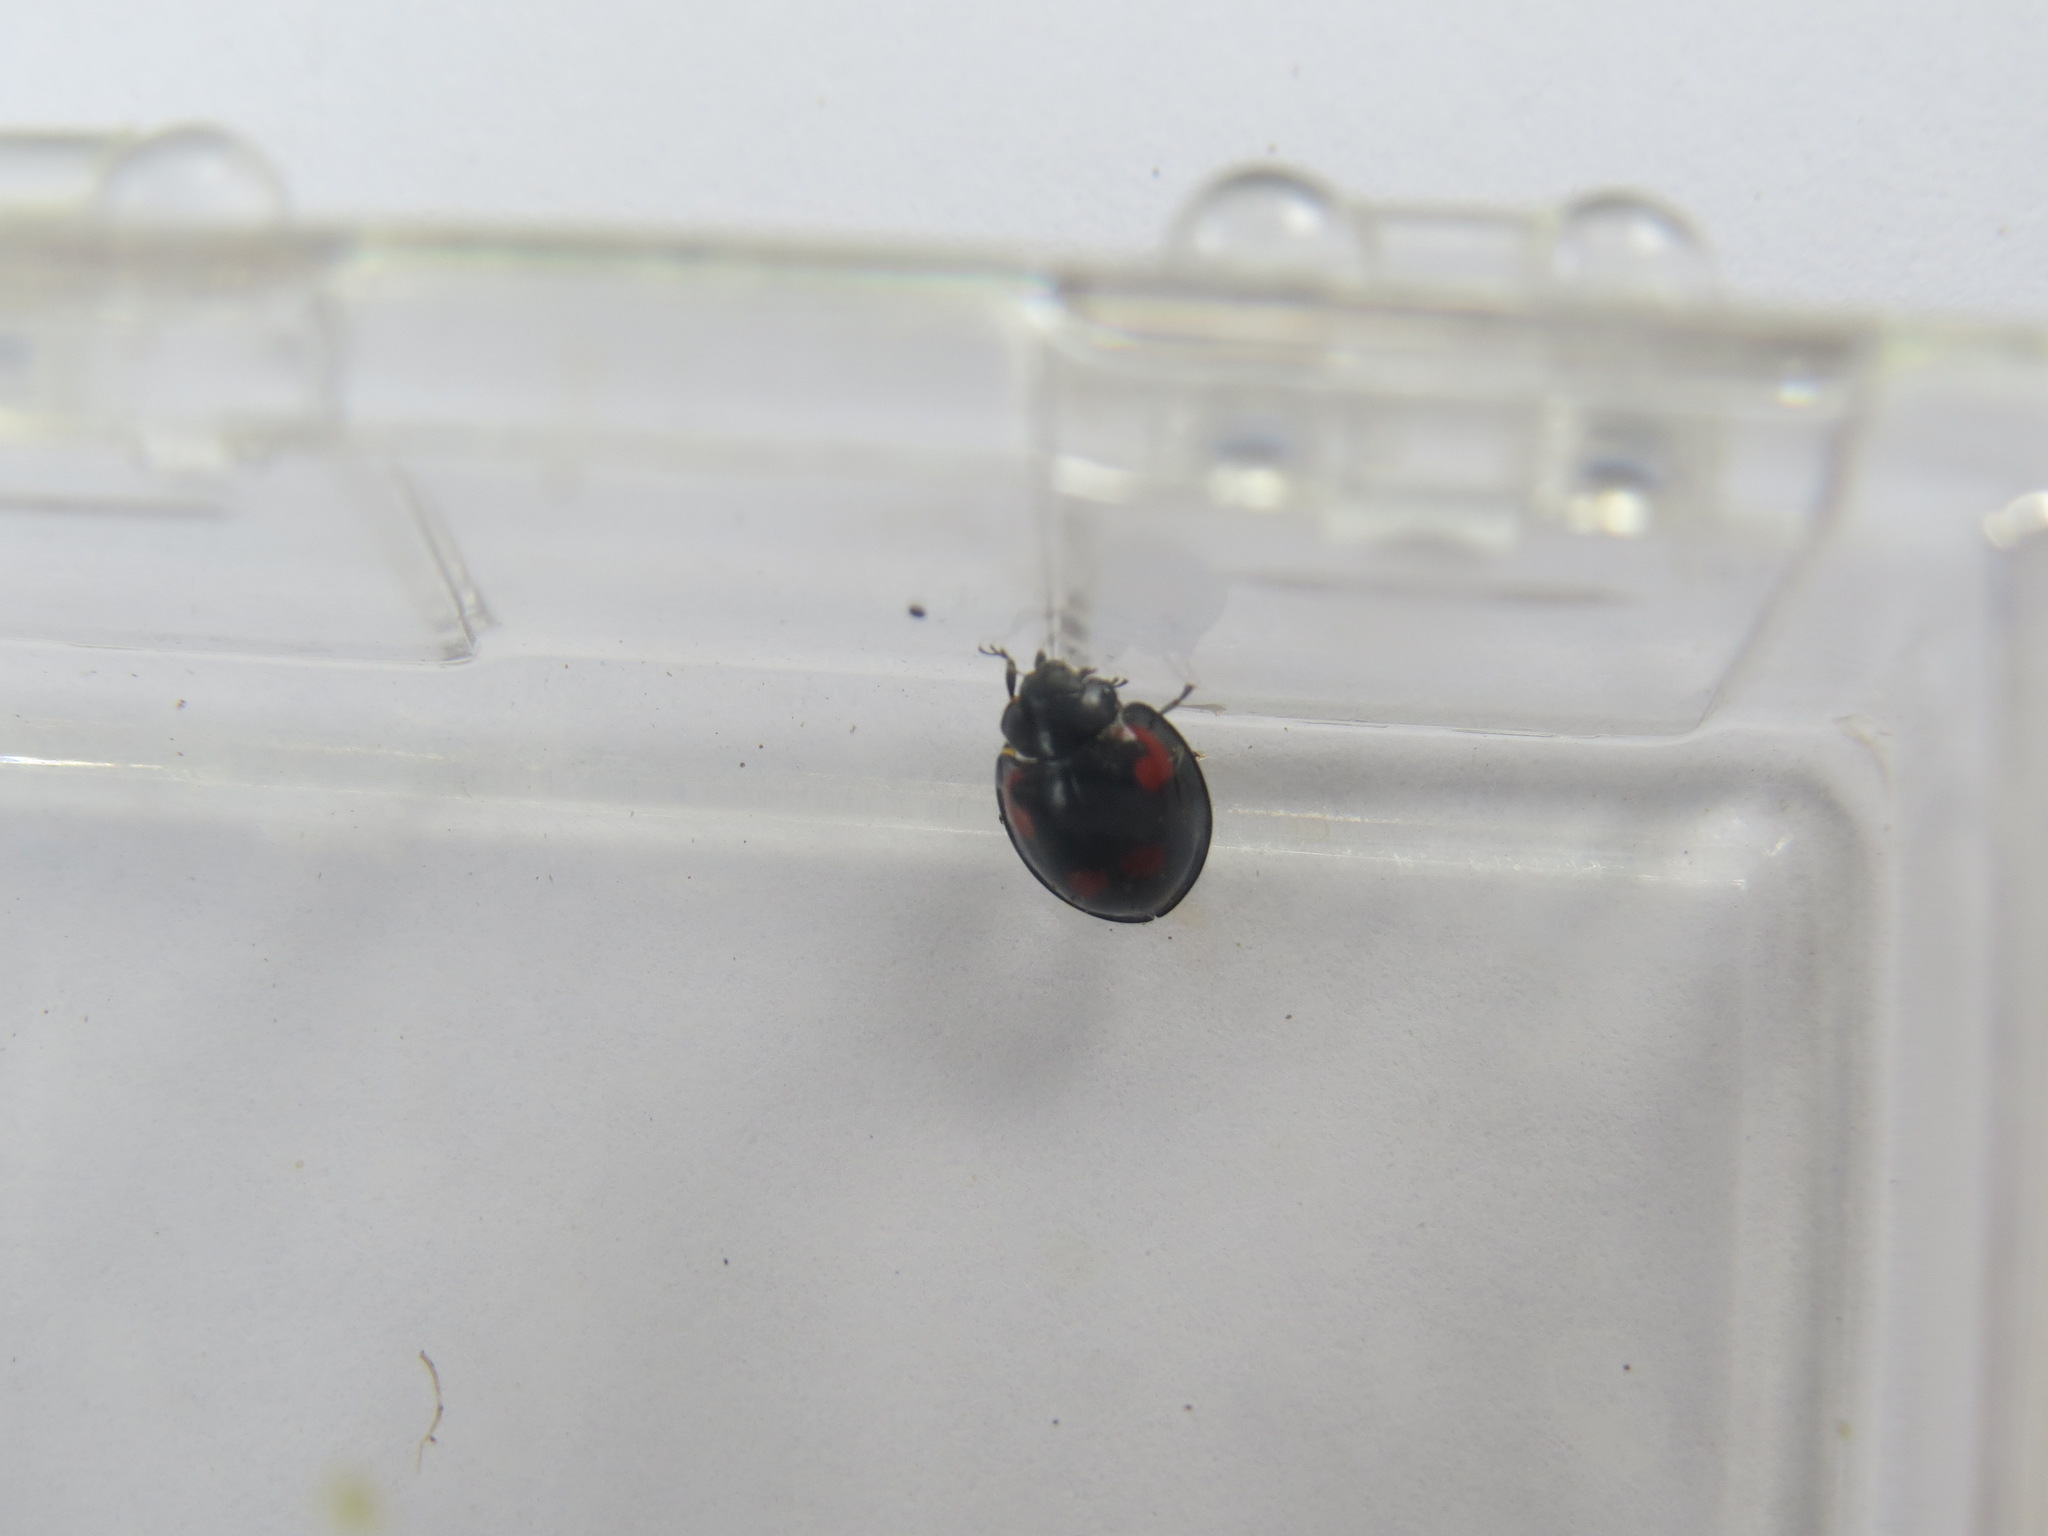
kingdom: Animalia
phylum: Arthropoda
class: Insecta
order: Coleoptera
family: Coccinellidae
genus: Brumus
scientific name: Brumus quadripustulatus
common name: Ladybird beetle
